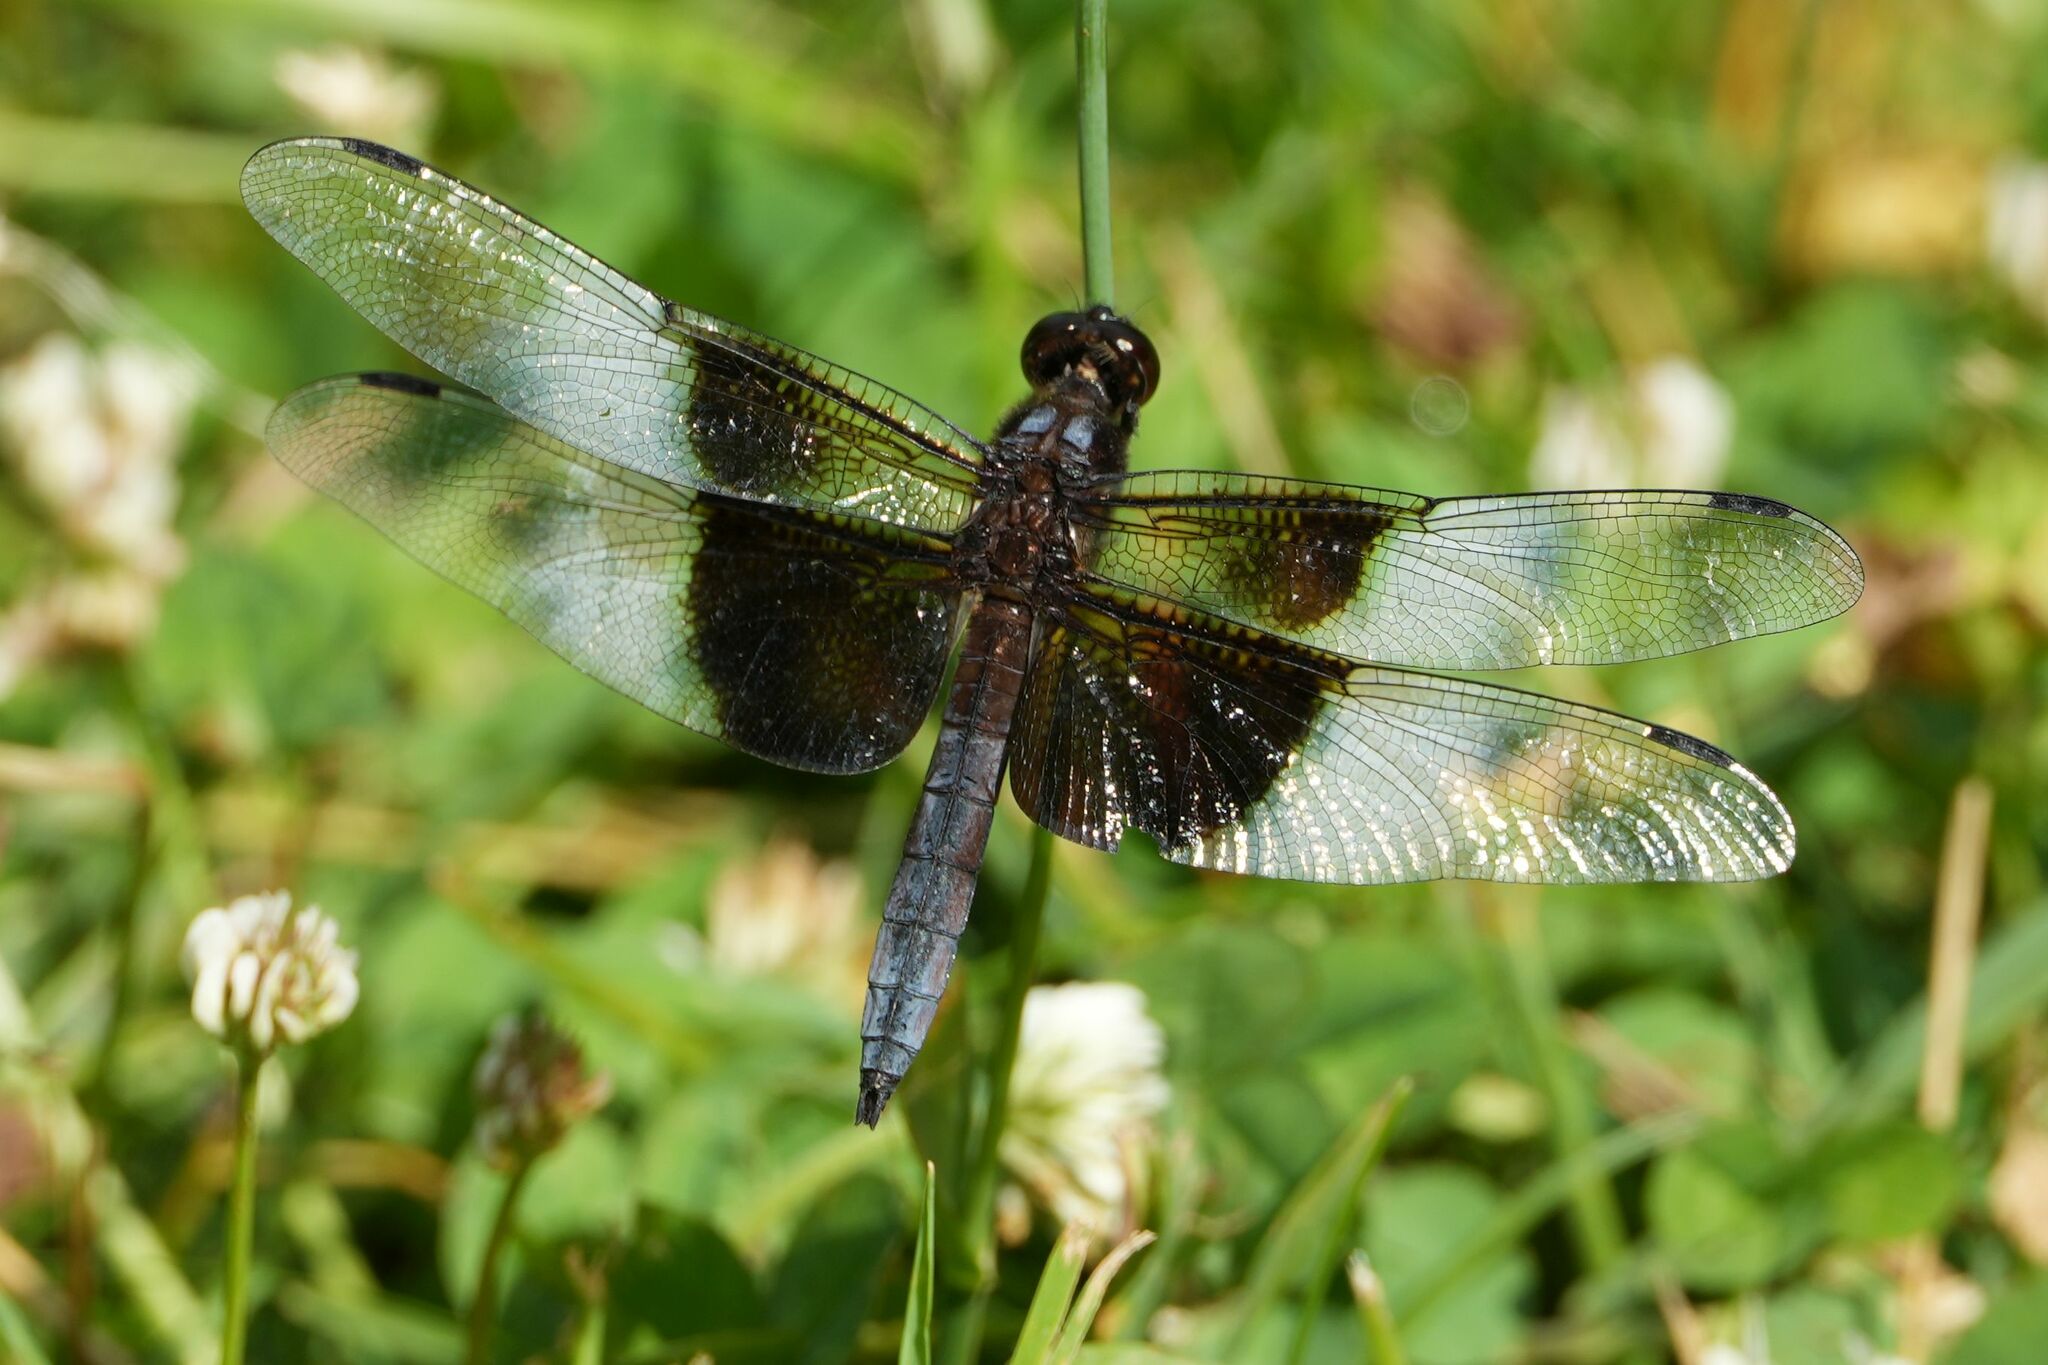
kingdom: Animalia
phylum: Arthropoda
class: Insecta
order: Odonata
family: Libellulidae
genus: Libellula
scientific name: Libellula luctuosa
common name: Widow skimmer
